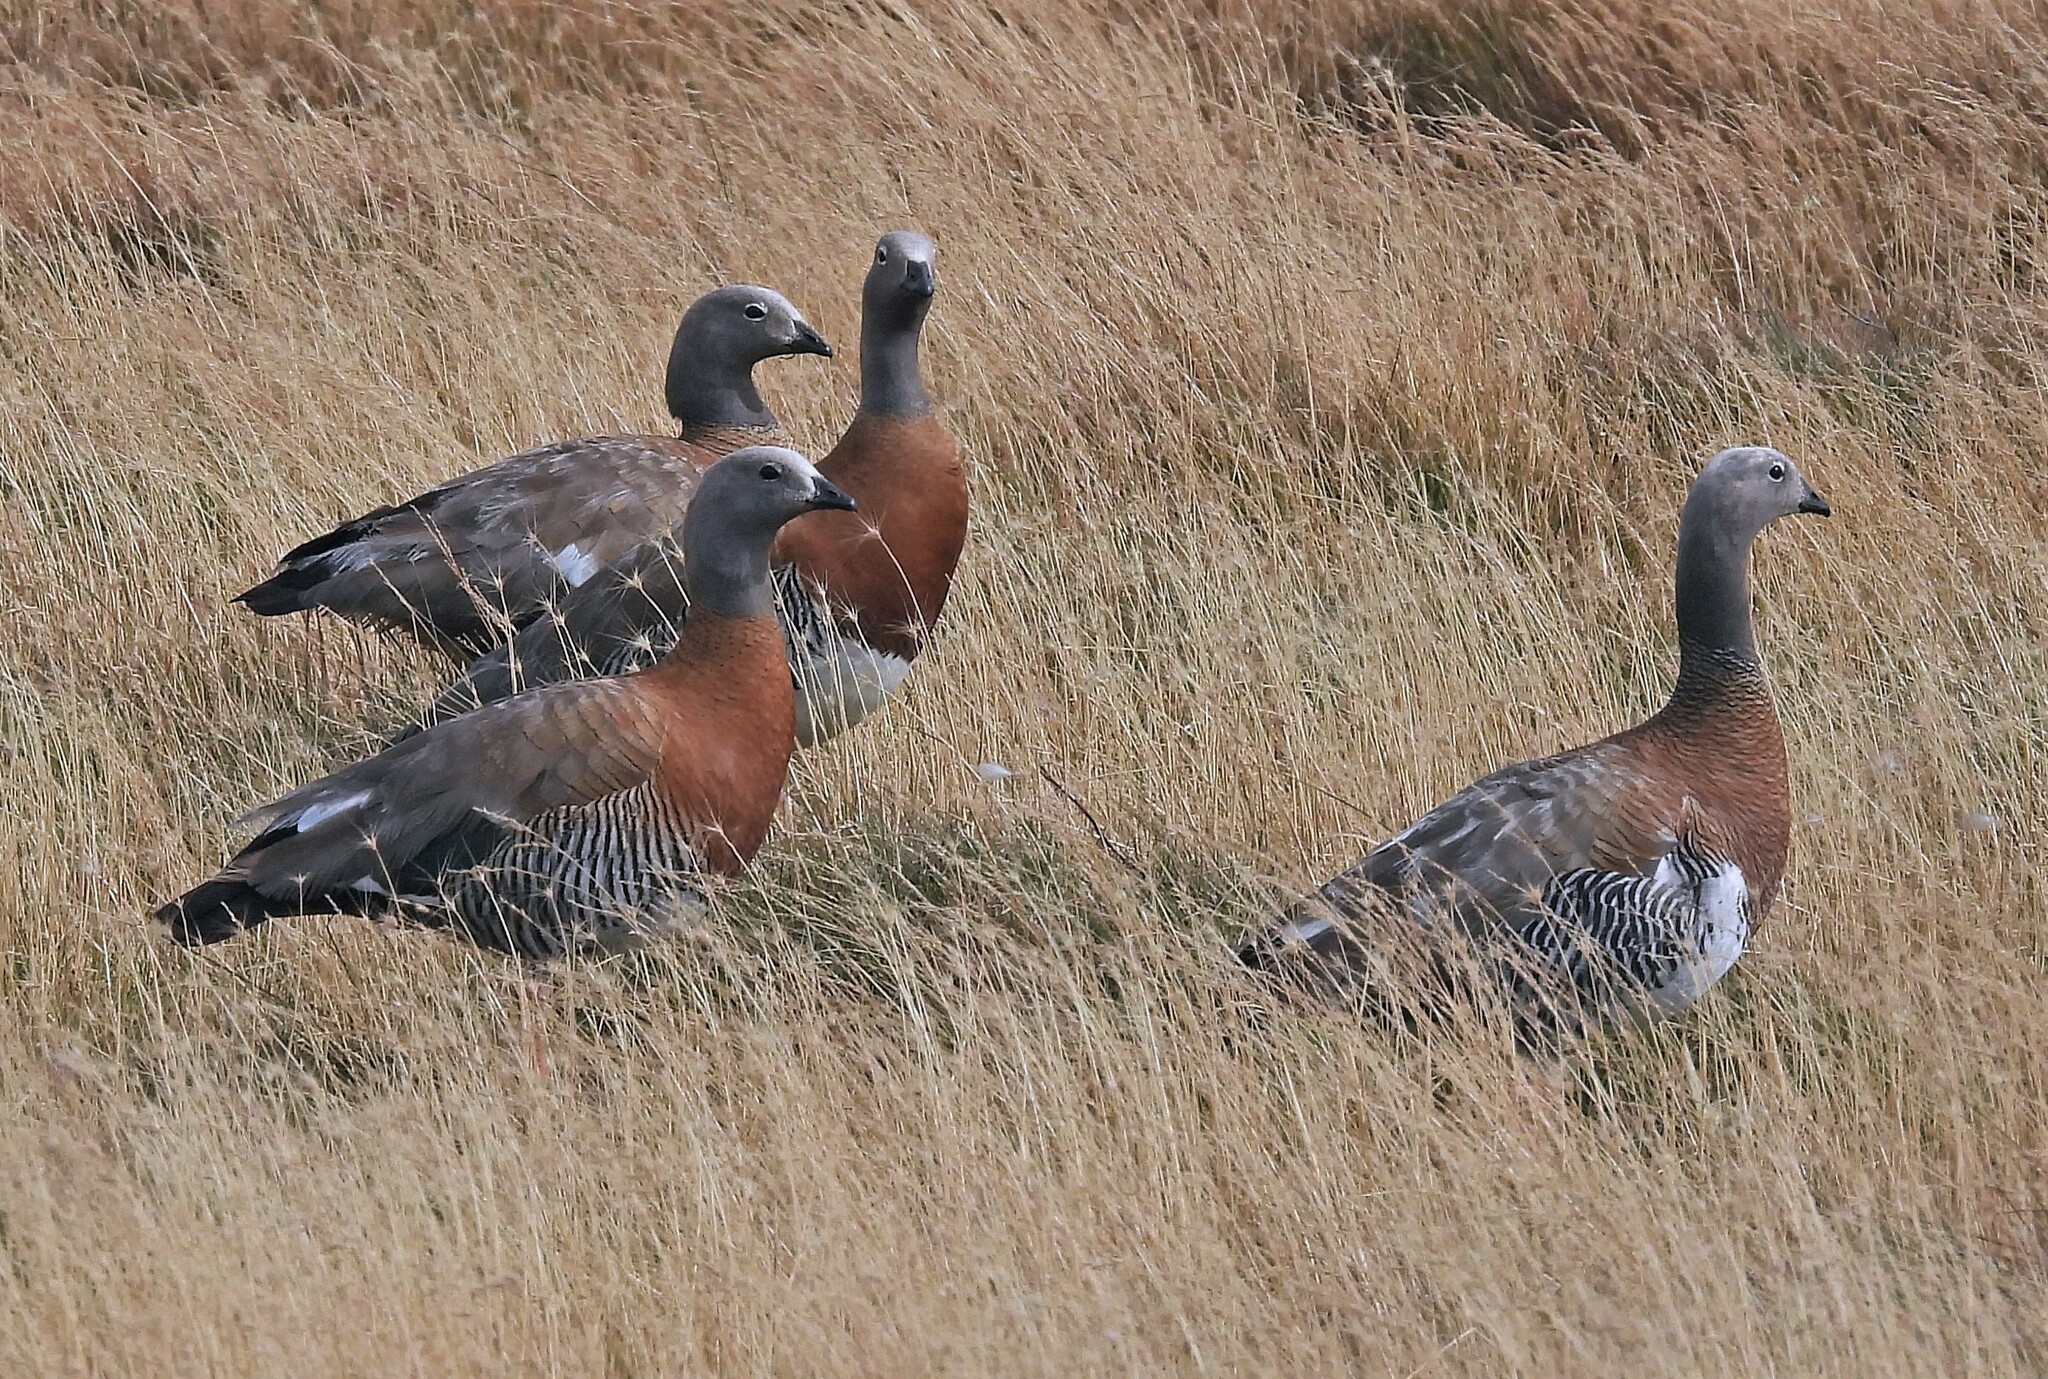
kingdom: Animalia
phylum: Chordata
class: Aves
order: Anseriformes
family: Anatidae
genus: Chloephaga
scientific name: Chloephaga poliocephala
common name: Ashy-headed goose
